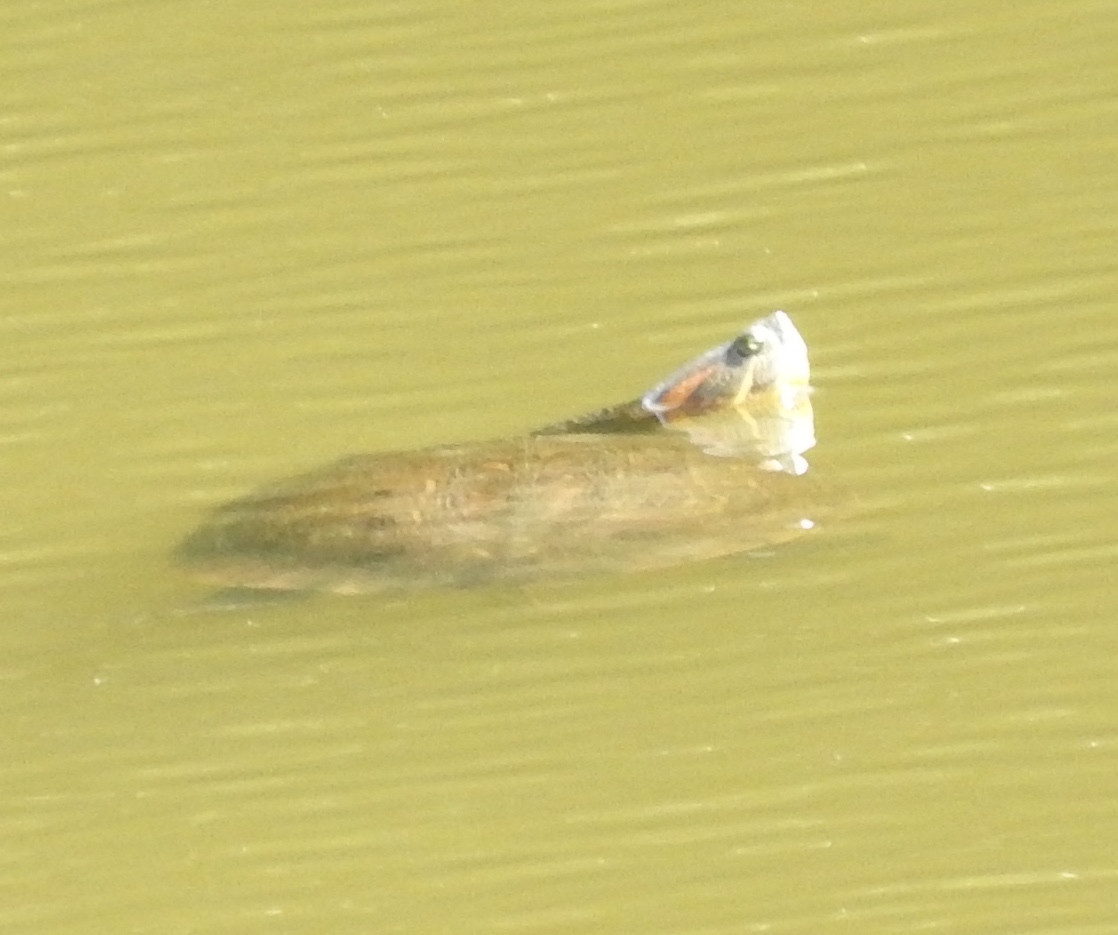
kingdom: Animalia
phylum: Chordata
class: Testudines
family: Emydidae
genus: Trachemys
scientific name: Trachemys ornata
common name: Ornate slider
